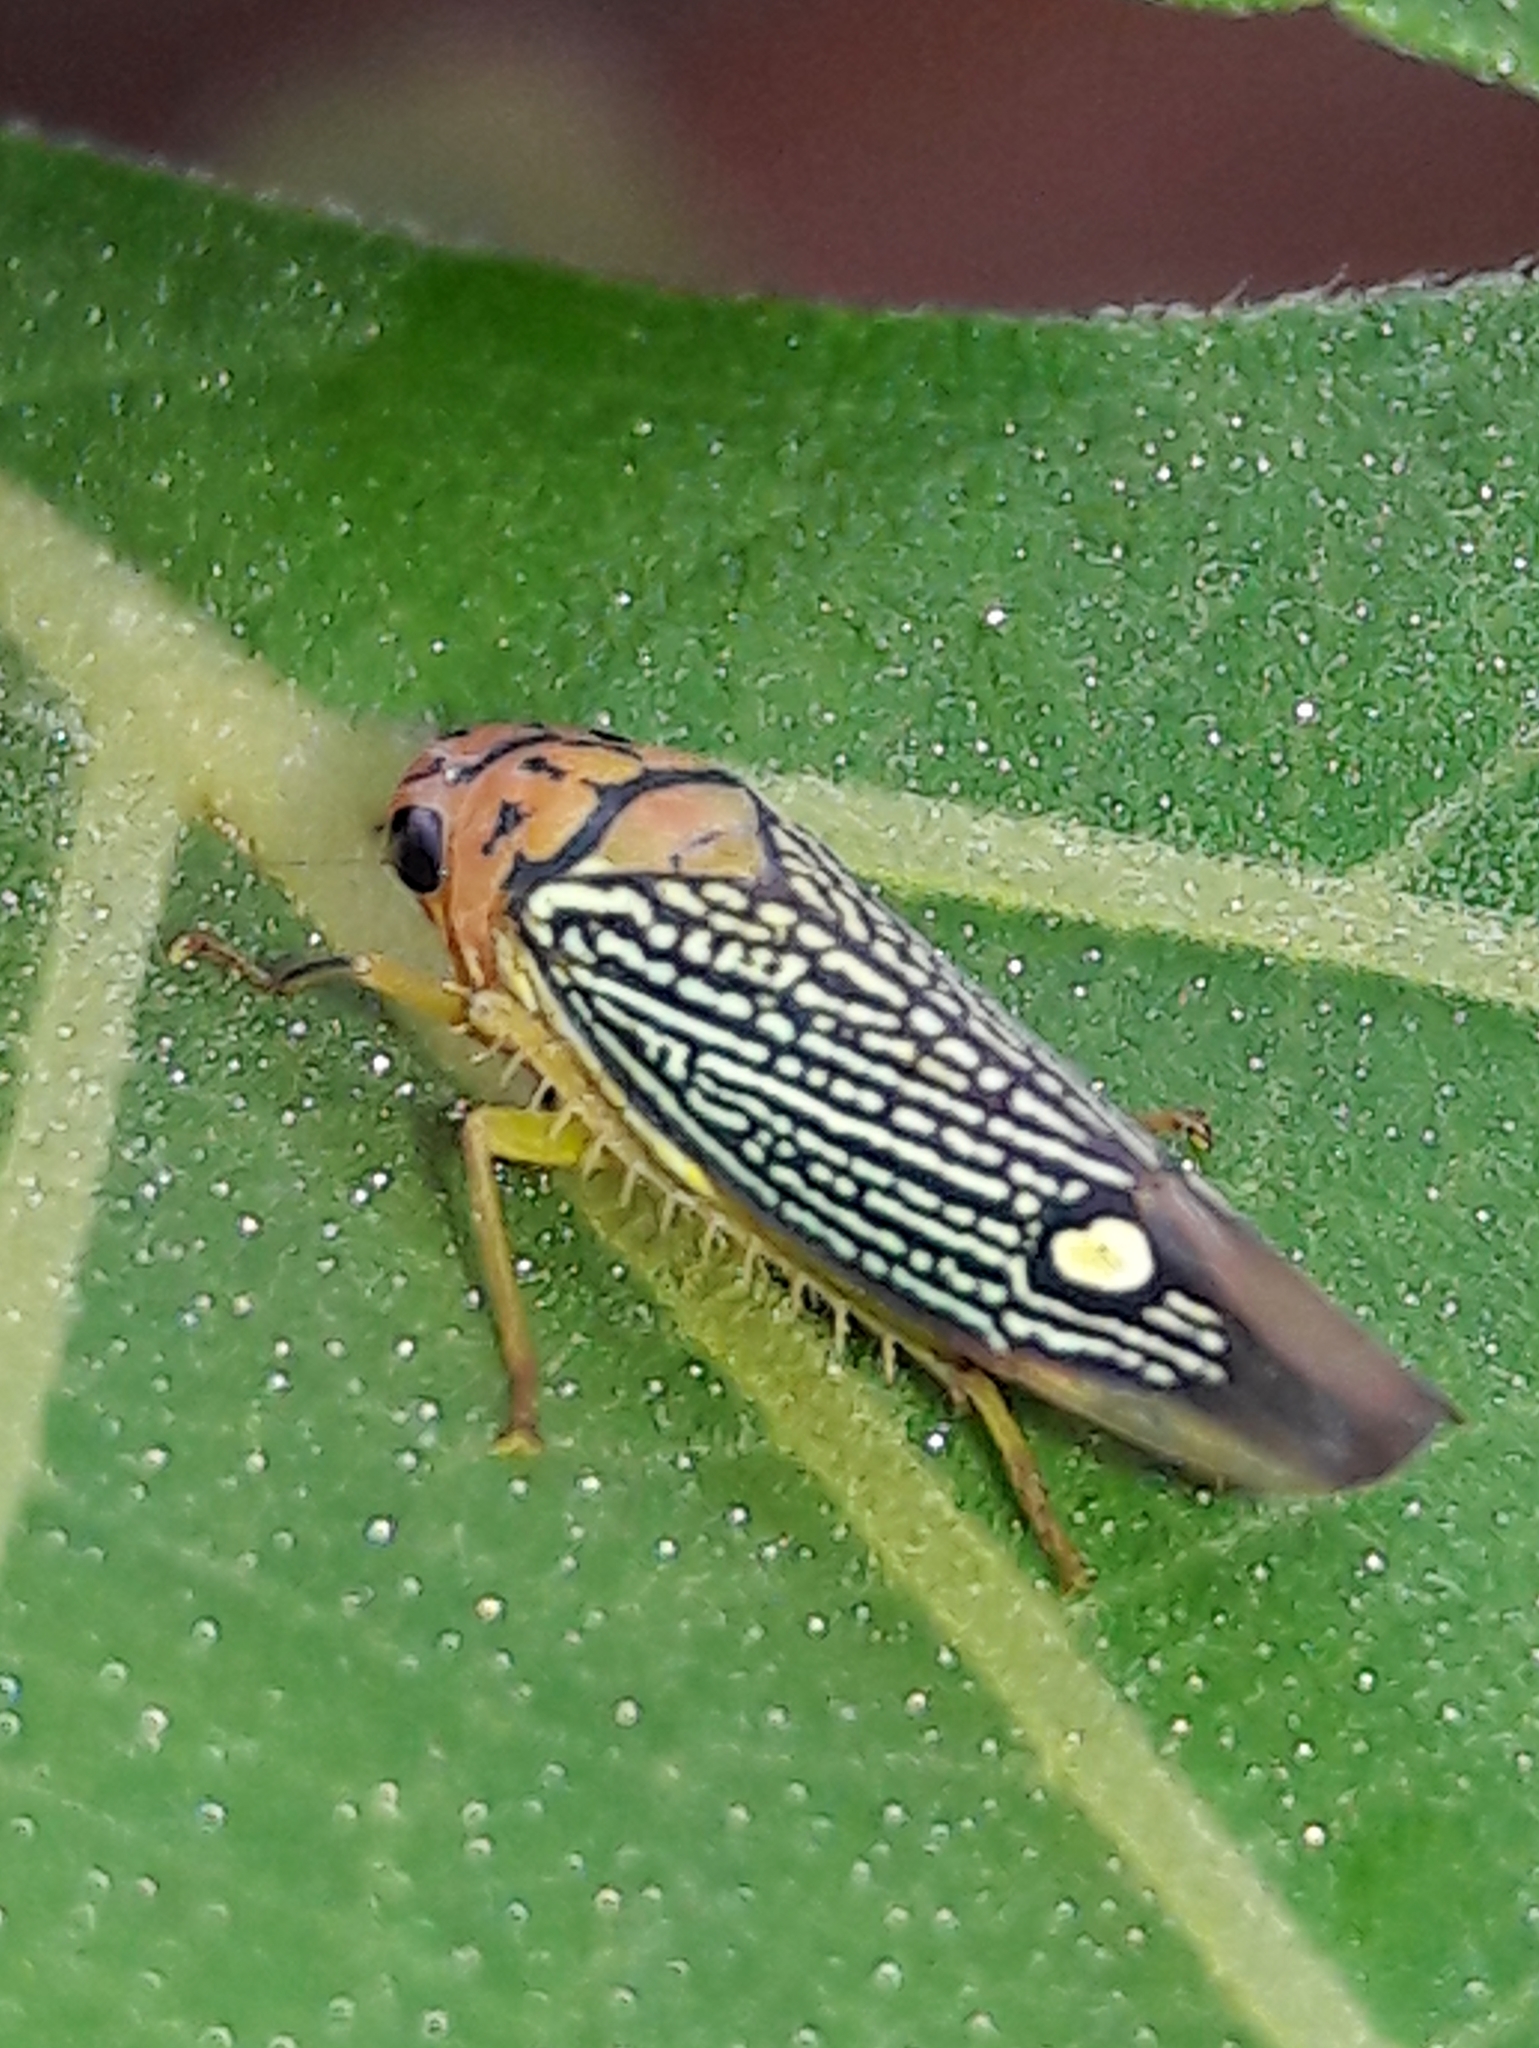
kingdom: Animalia
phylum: Arthropoda
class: Insecta
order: Hemiptera
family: Cicadellidae
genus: Parathona
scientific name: Parathona gratiosa
